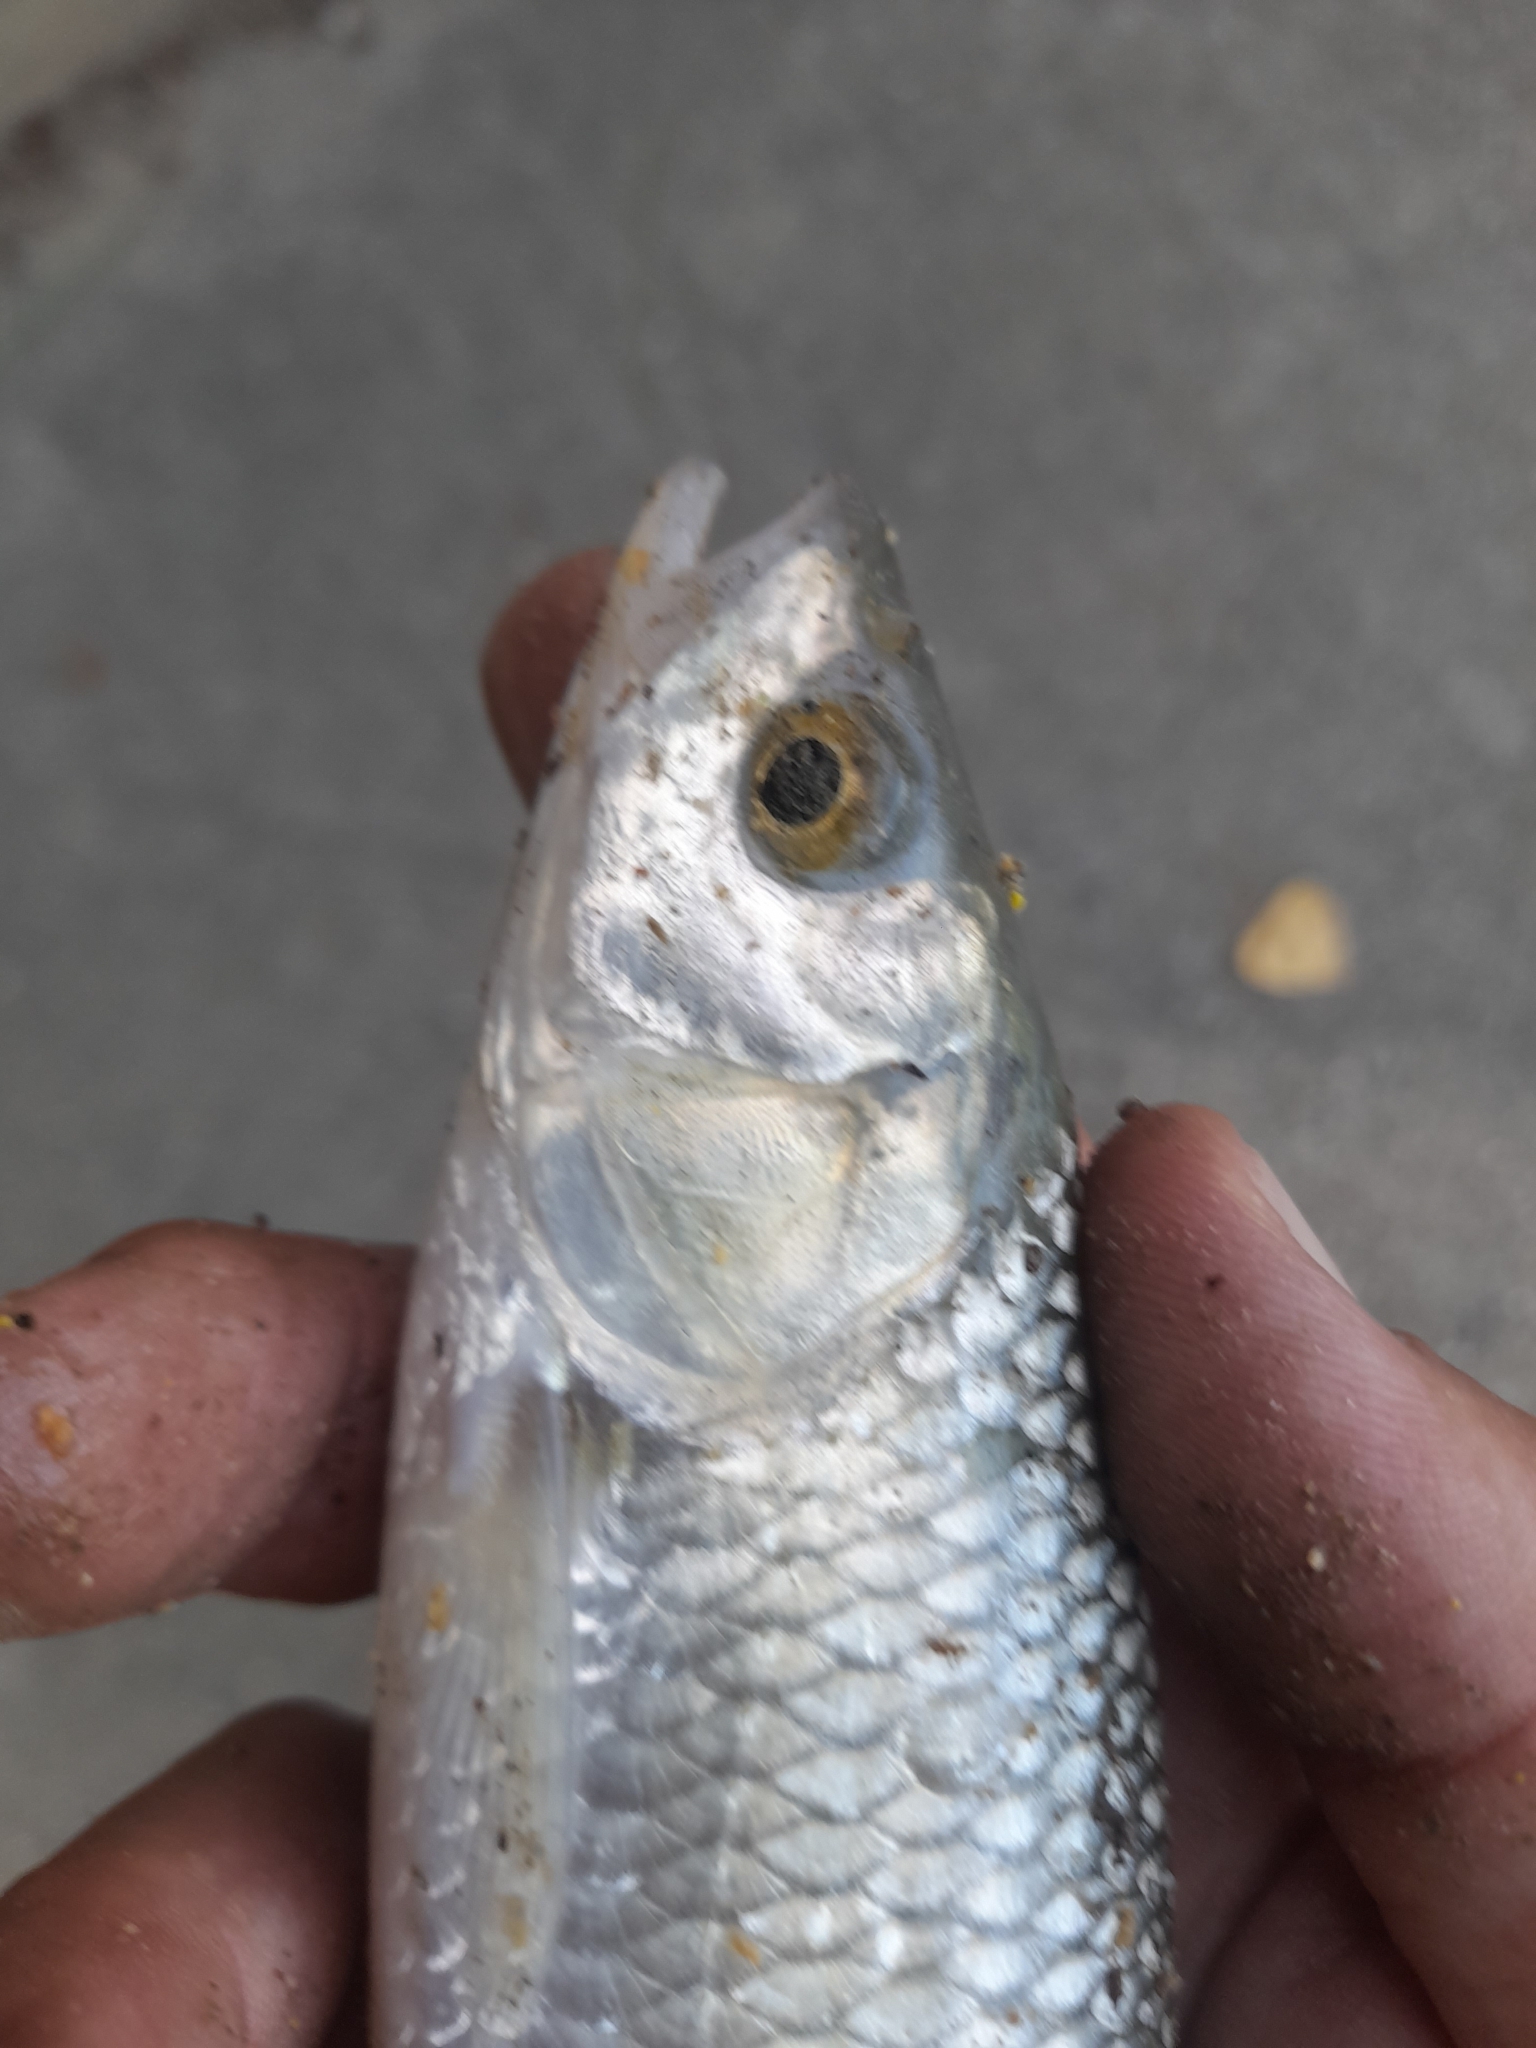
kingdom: Animalia
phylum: Chordata
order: Cypriniformes
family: Cyprinidae
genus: Squalius
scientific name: Squalius squalus
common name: Italian chub
